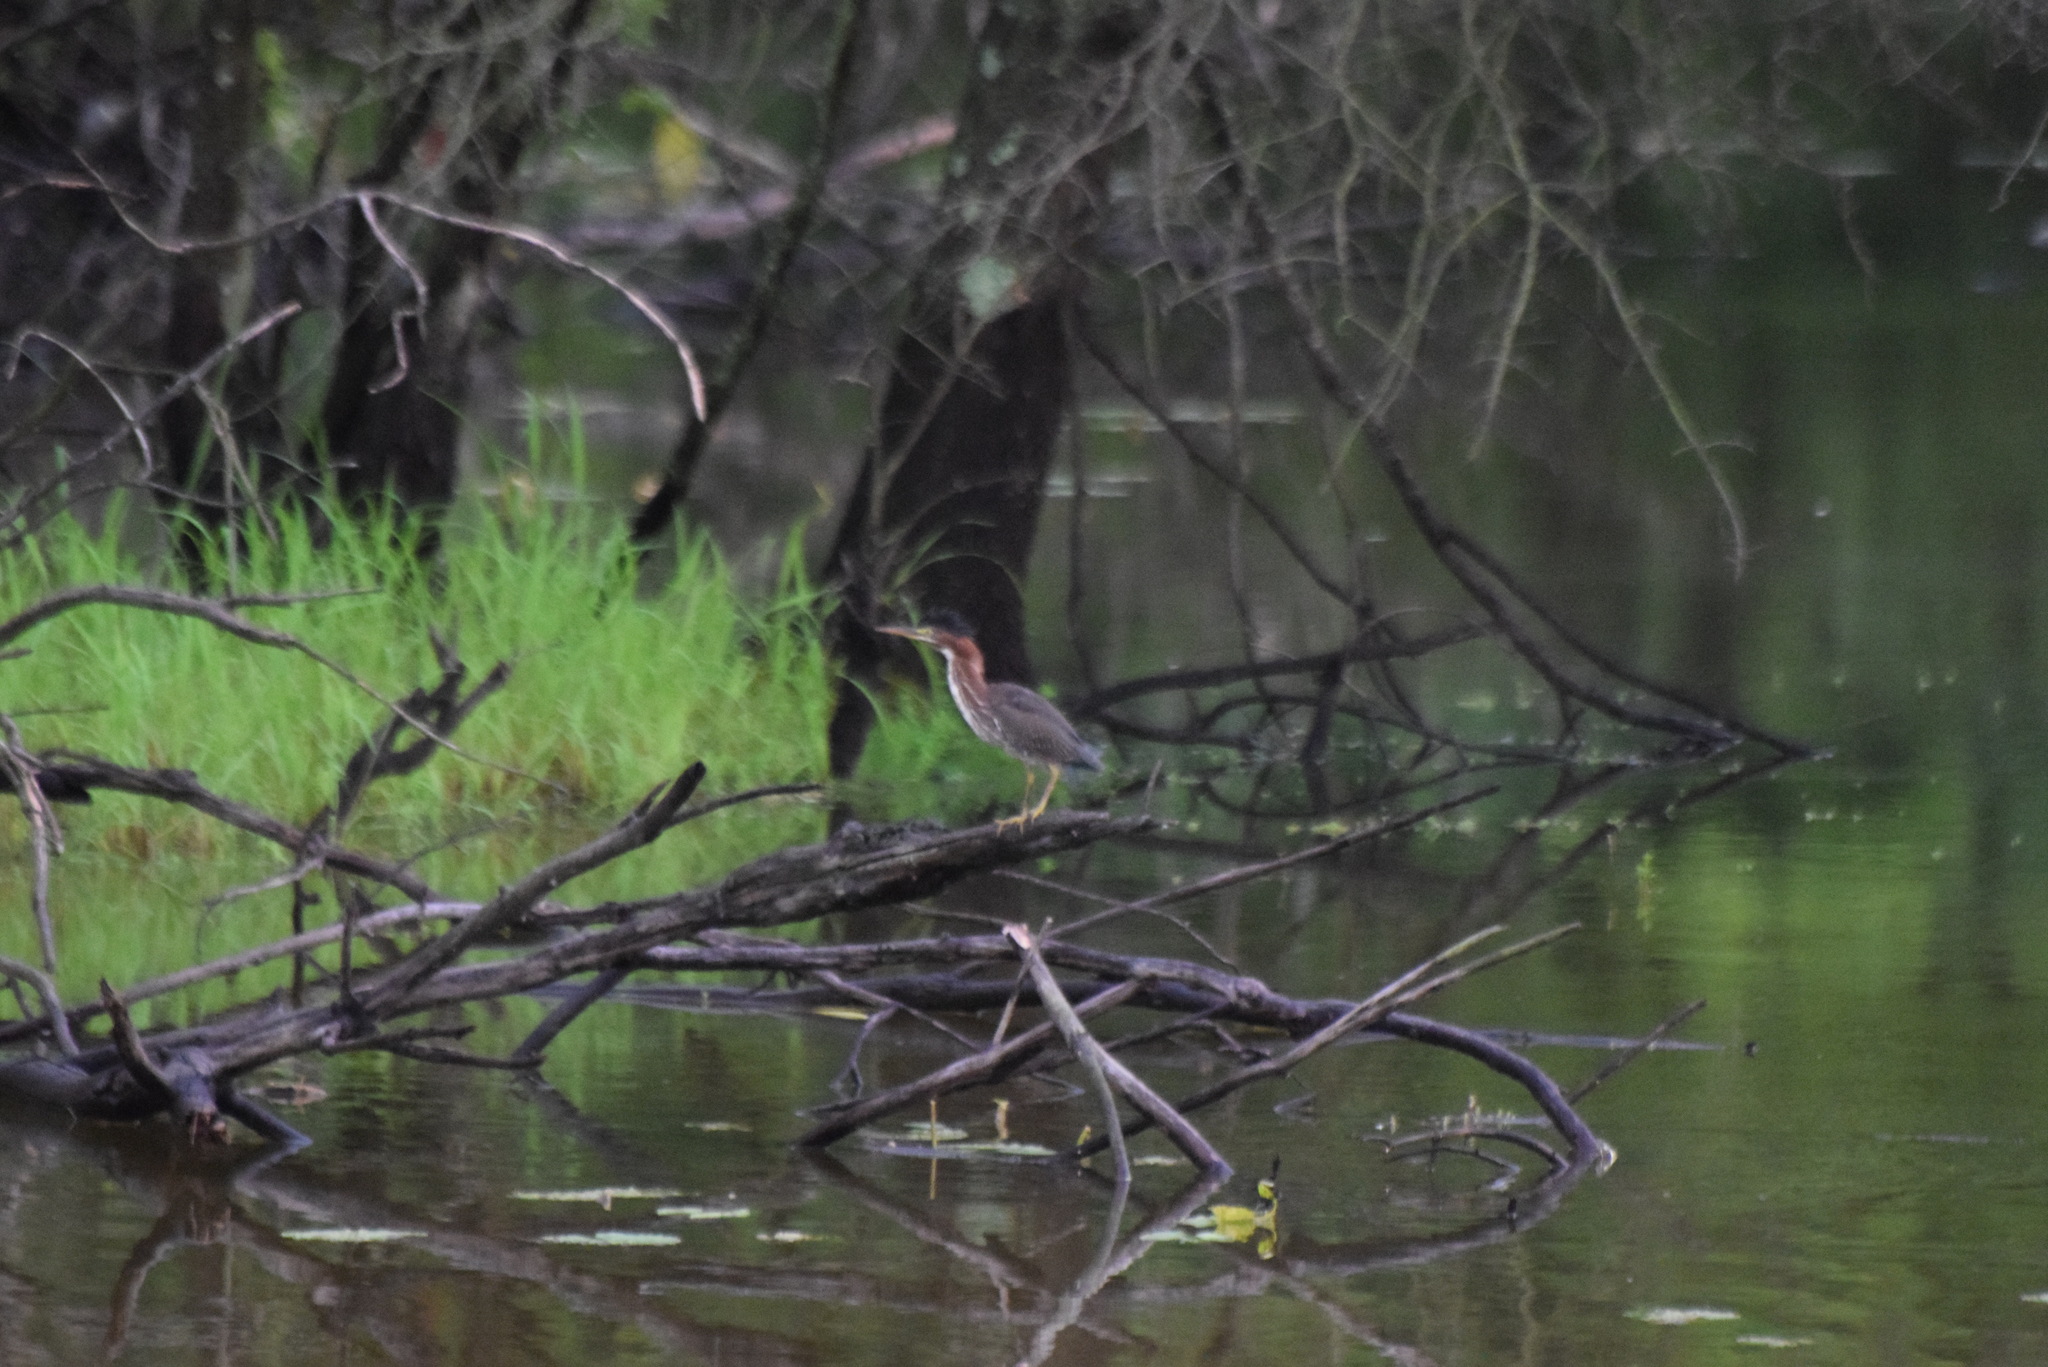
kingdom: Animalia
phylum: Chordata
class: Aves
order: Pelecaniformes
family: Ardeidae
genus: Butorides
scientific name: Butorides virescens
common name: Green heron
